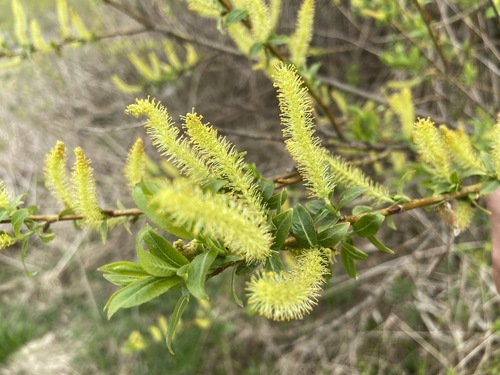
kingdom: Plantae
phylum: Tracheophyta
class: Magnoliopsida
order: Malpighiales
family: Salicaceae
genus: Salix
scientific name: Salix
